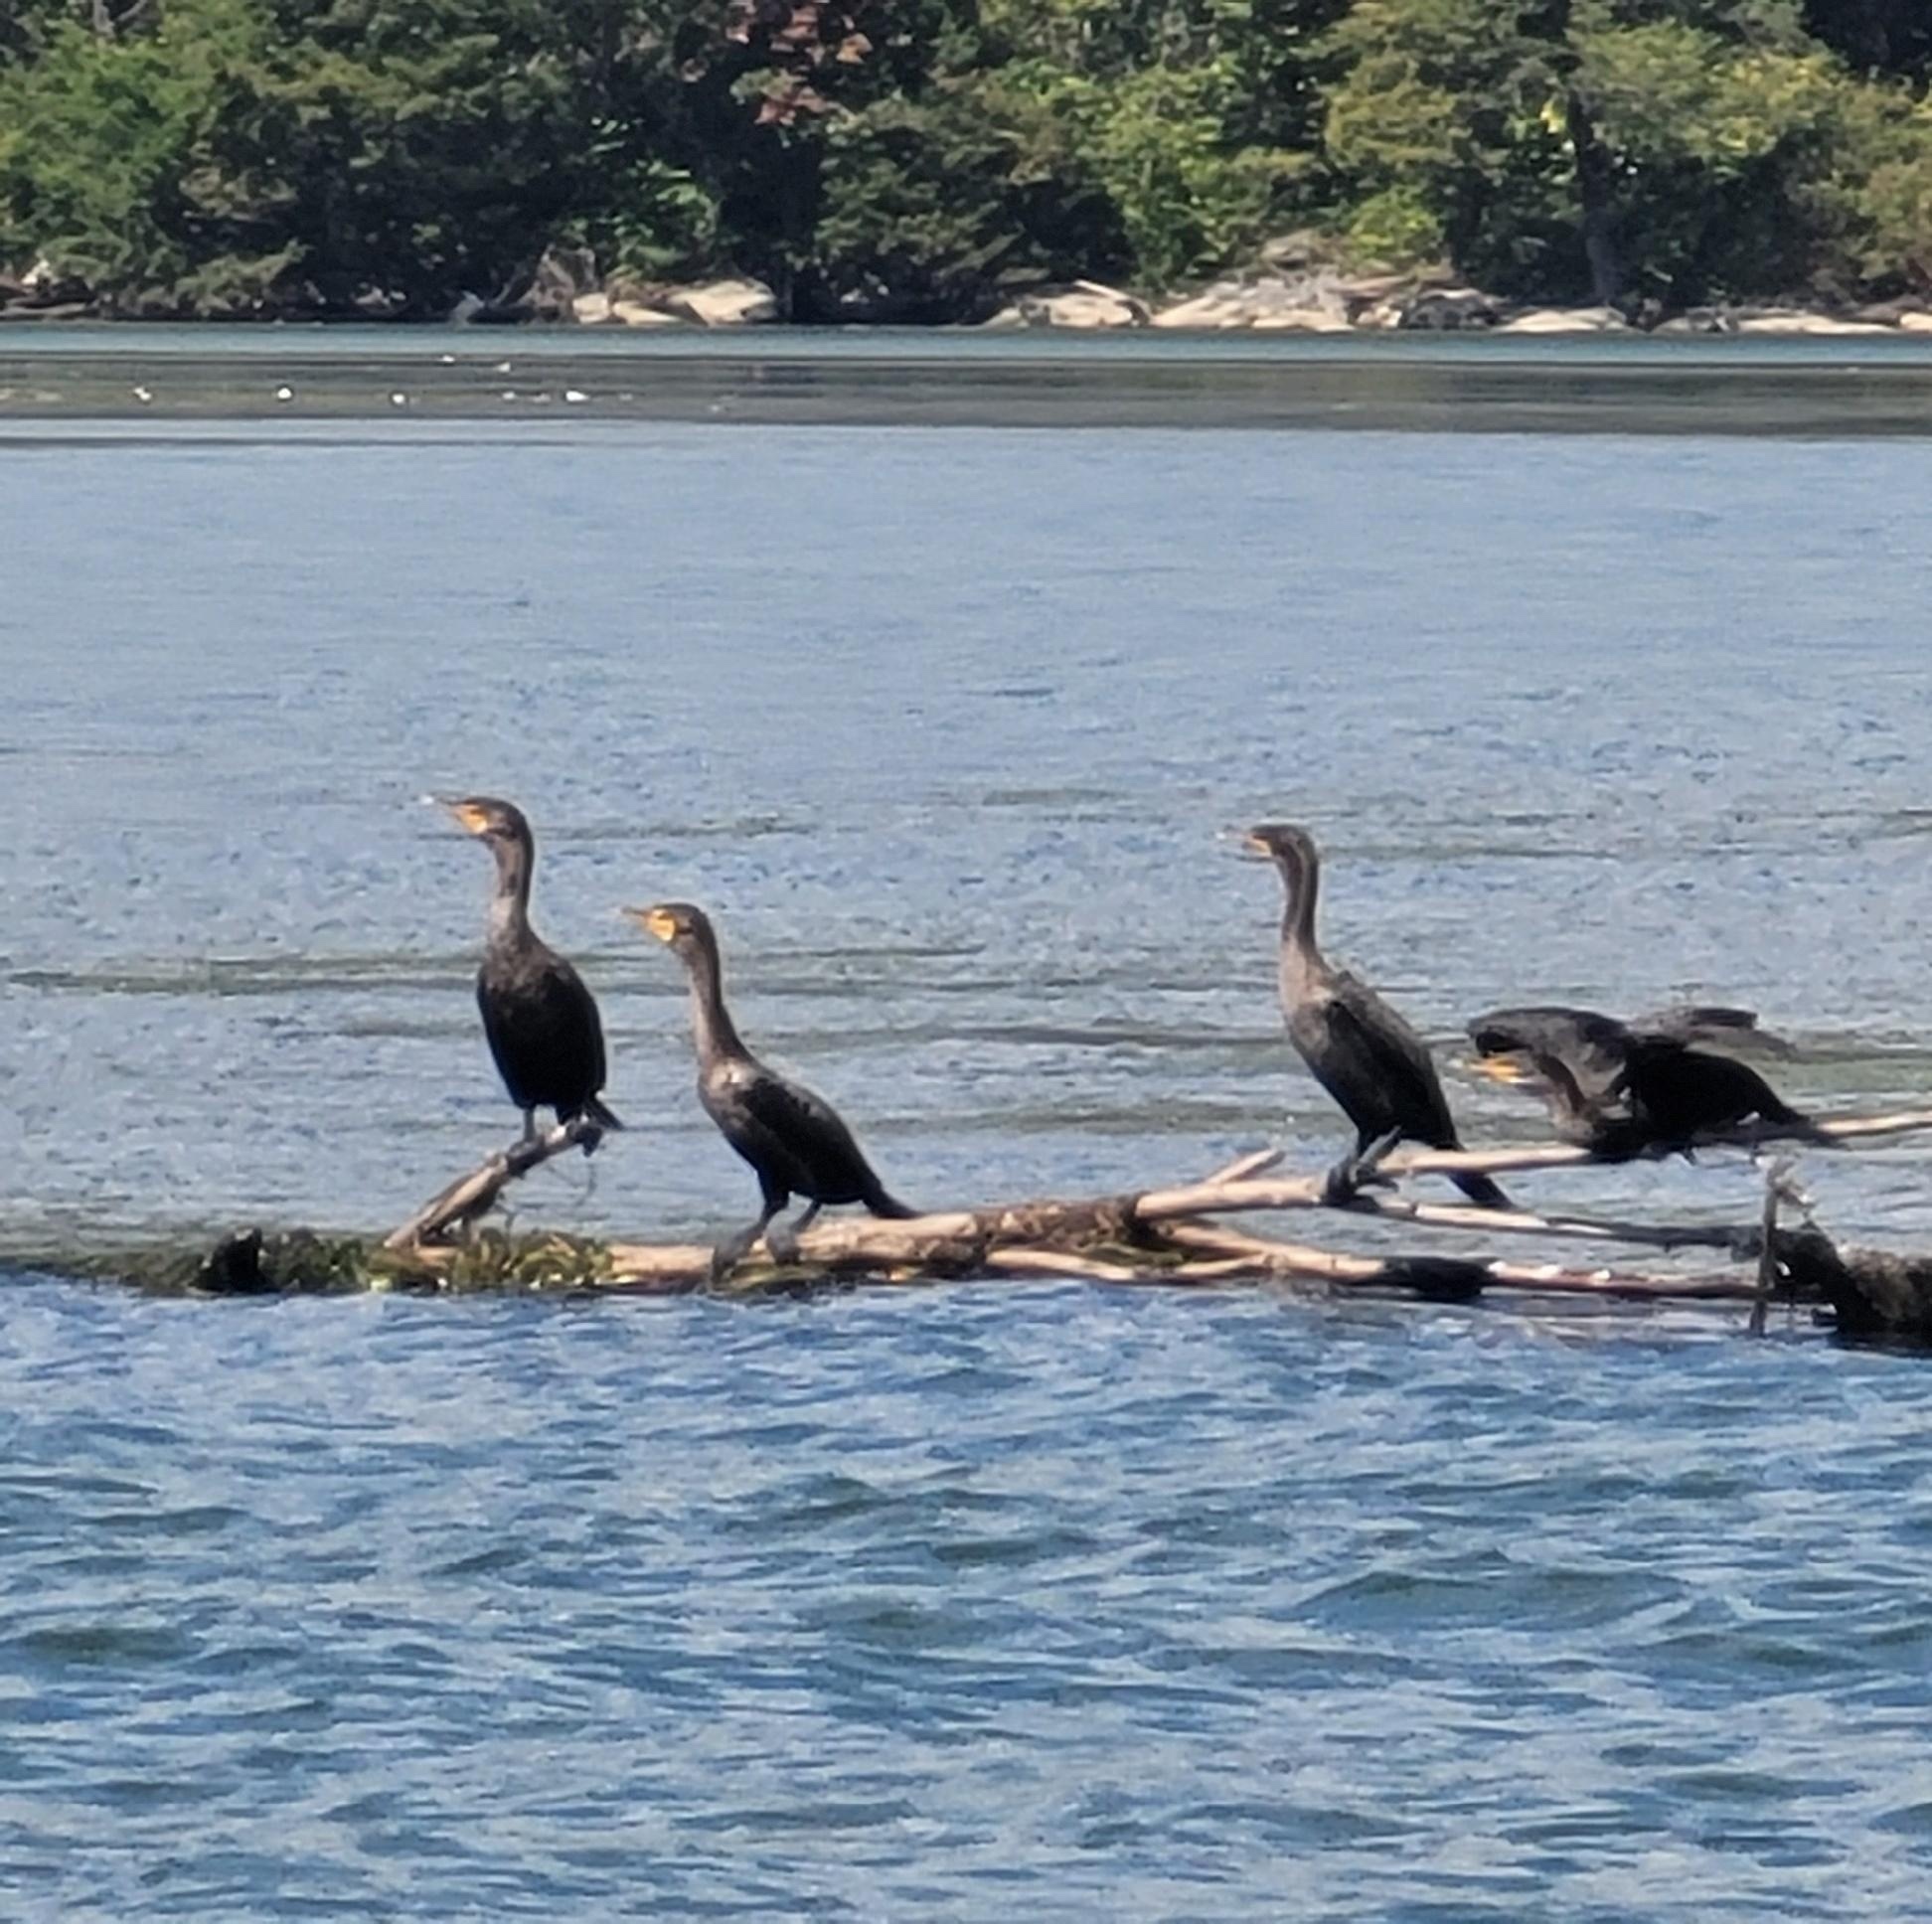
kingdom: Animalia
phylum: Chordata
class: Aves
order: Suliformes
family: Phalacrocoracidae
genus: Phalacrocorax
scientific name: Phalacrocorax auritus
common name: Double-crested cormorant
